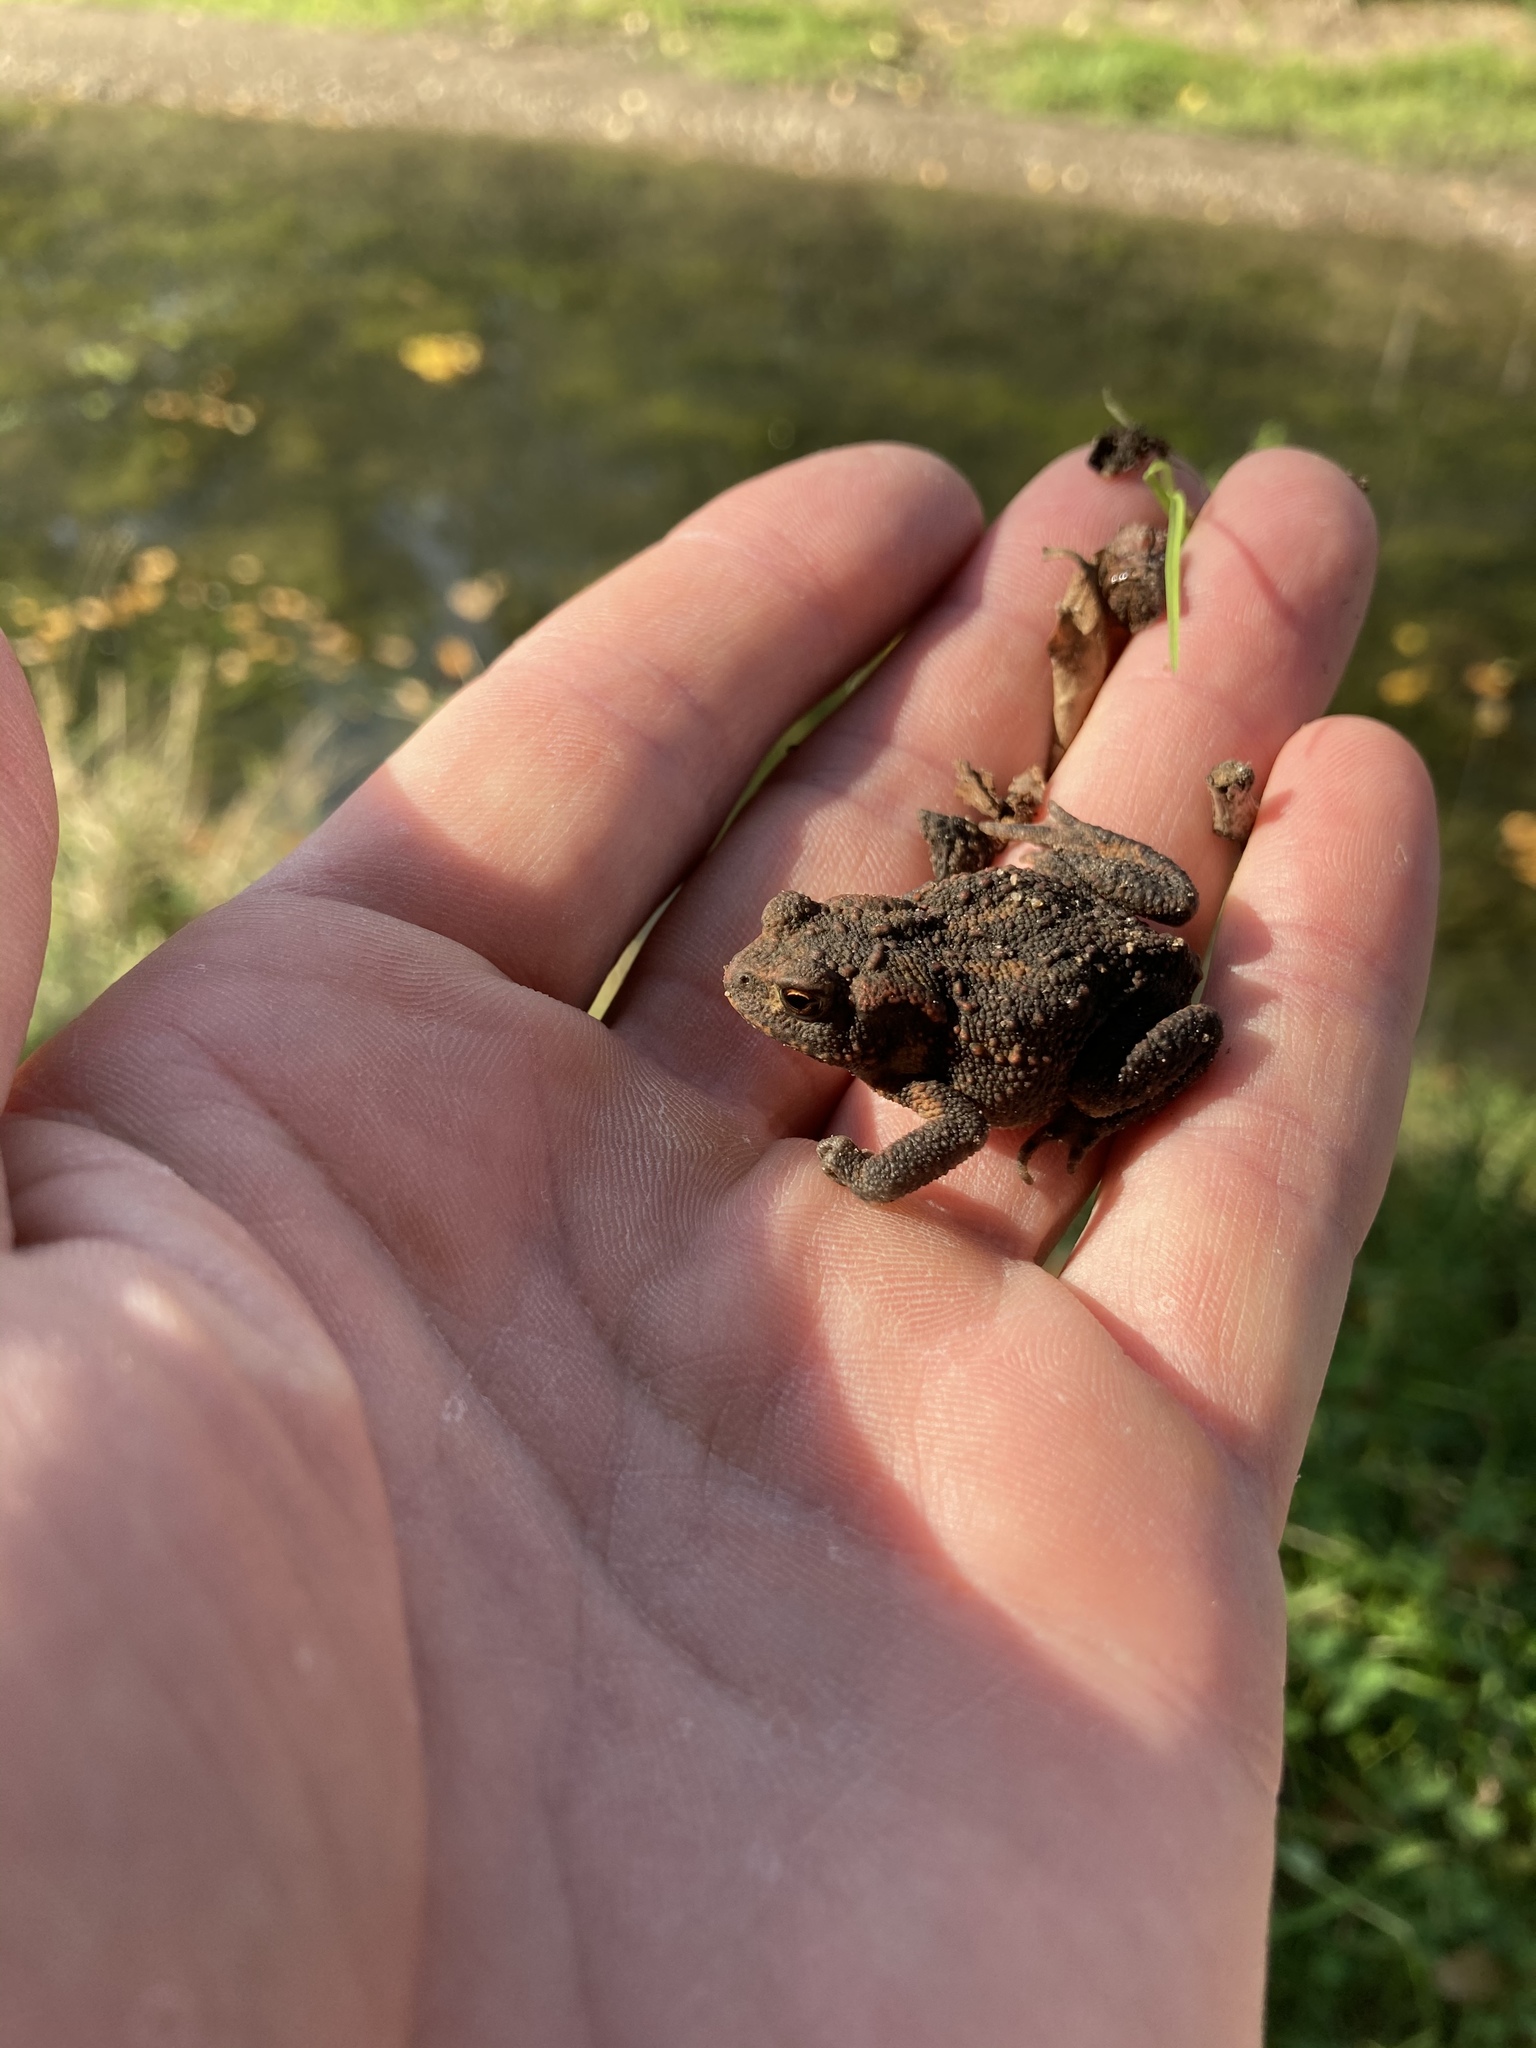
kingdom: Animalia
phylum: Chordata
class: Amphibia
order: Anura
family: Bufonidae
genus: Bufo
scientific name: Bufo bufo
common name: Common toad
